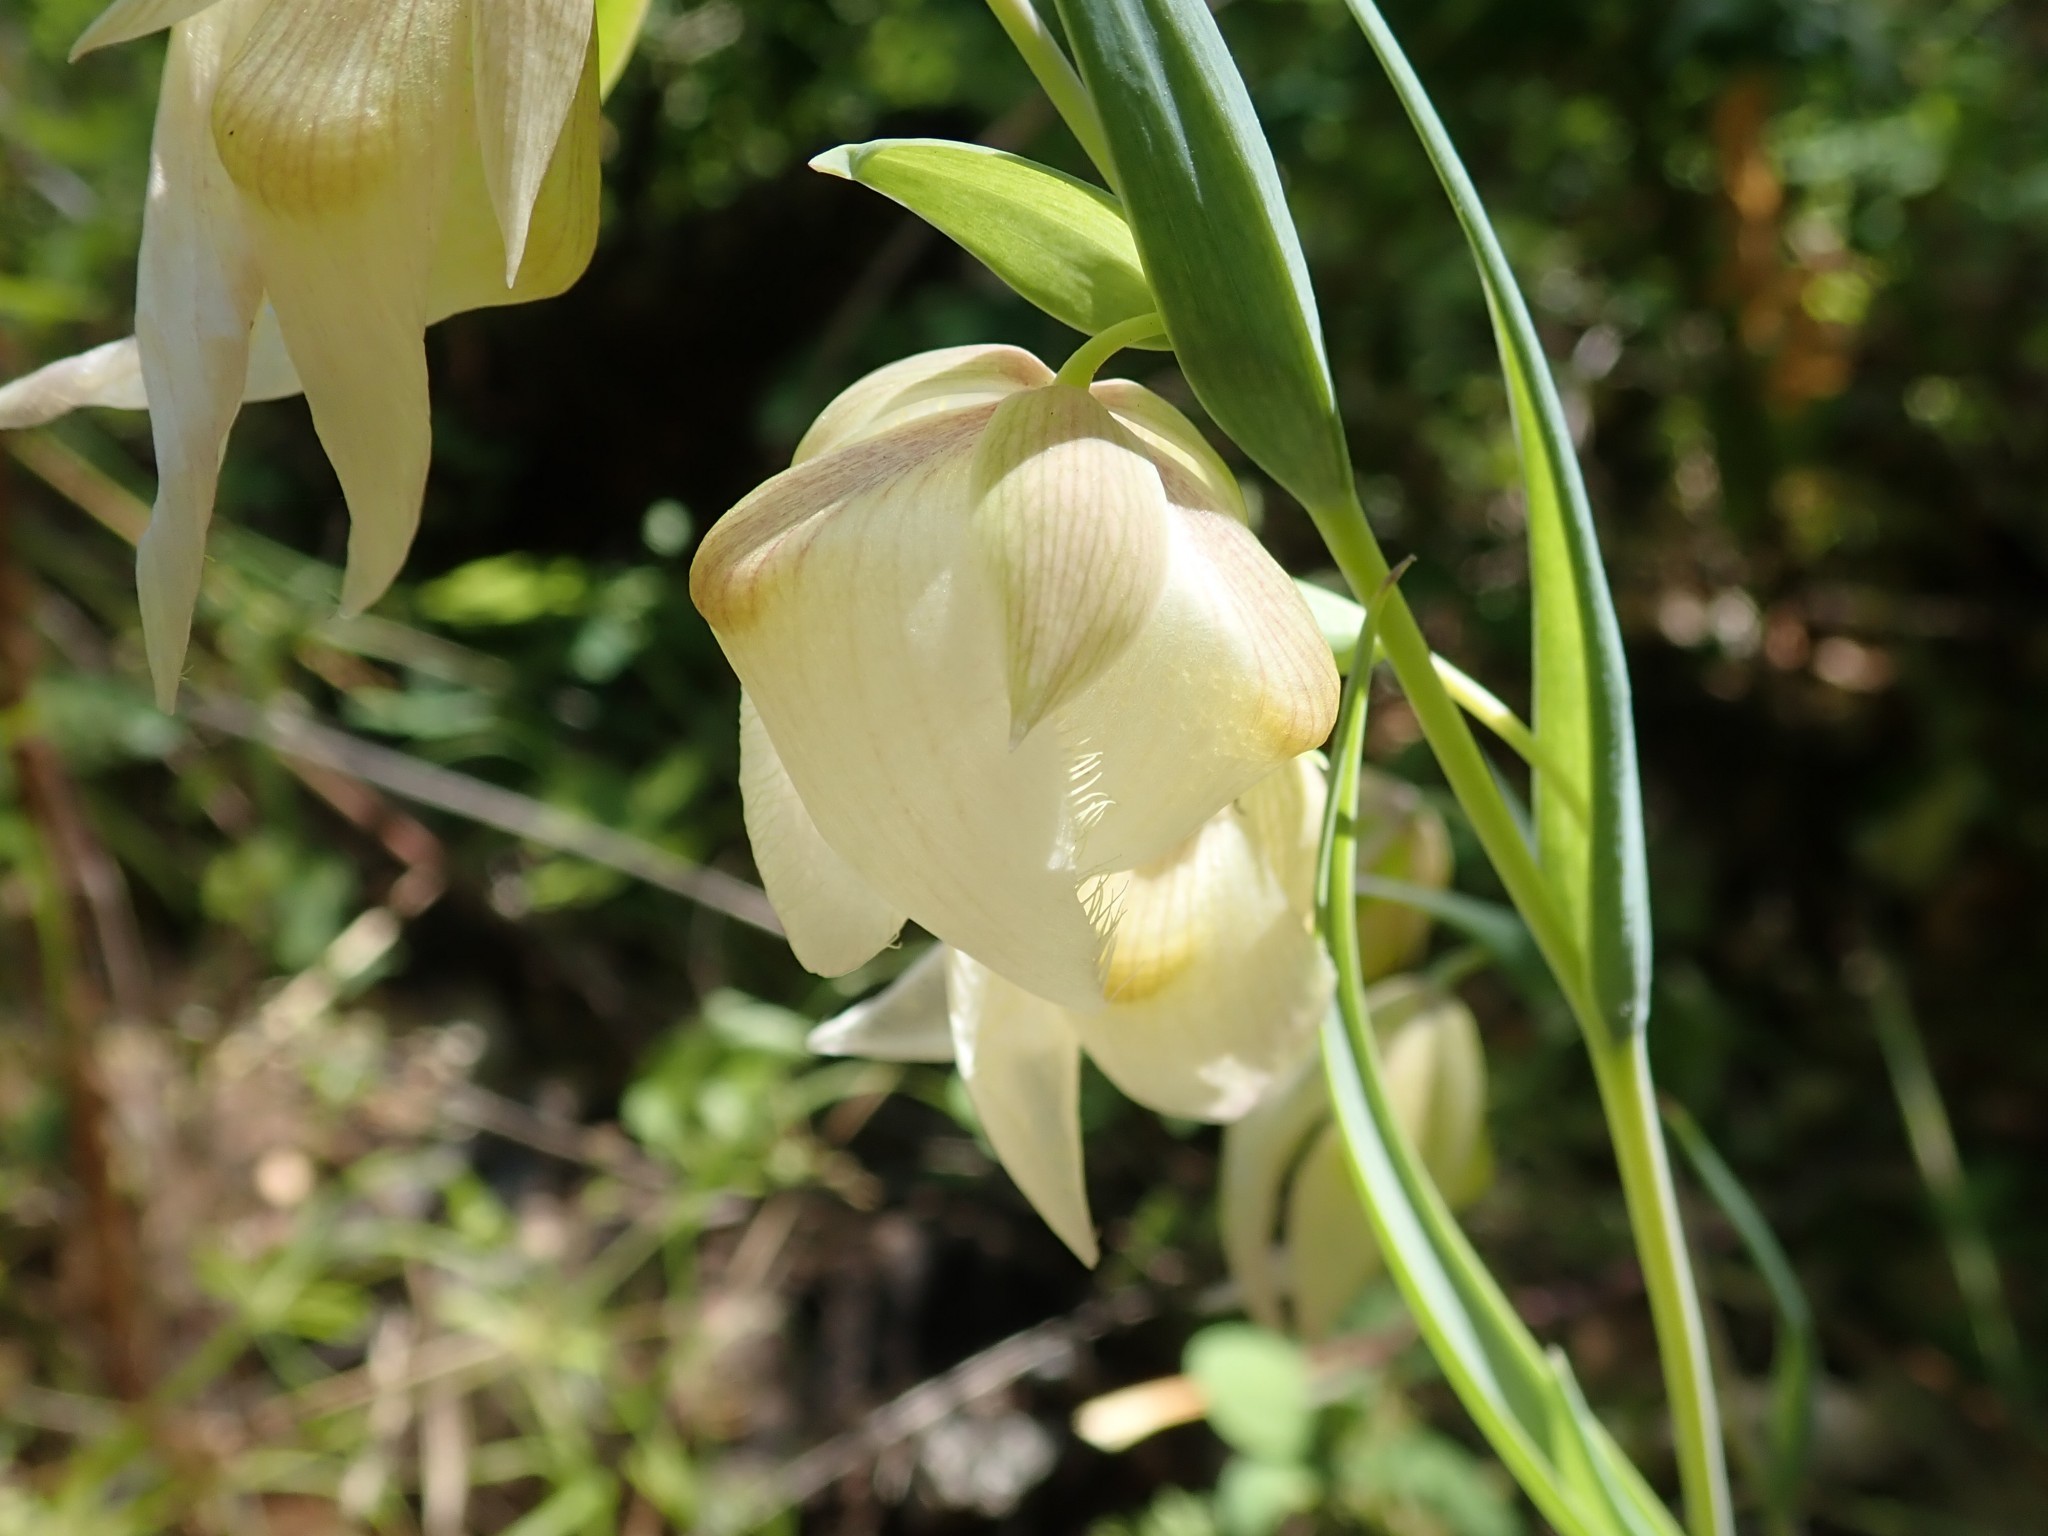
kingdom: Plantae
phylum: Tracheophyta
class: Liliopsida
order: Liliales
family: Liliaceae
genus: Calochortus
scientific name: Calochortus albus
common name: Fairy-lantern
